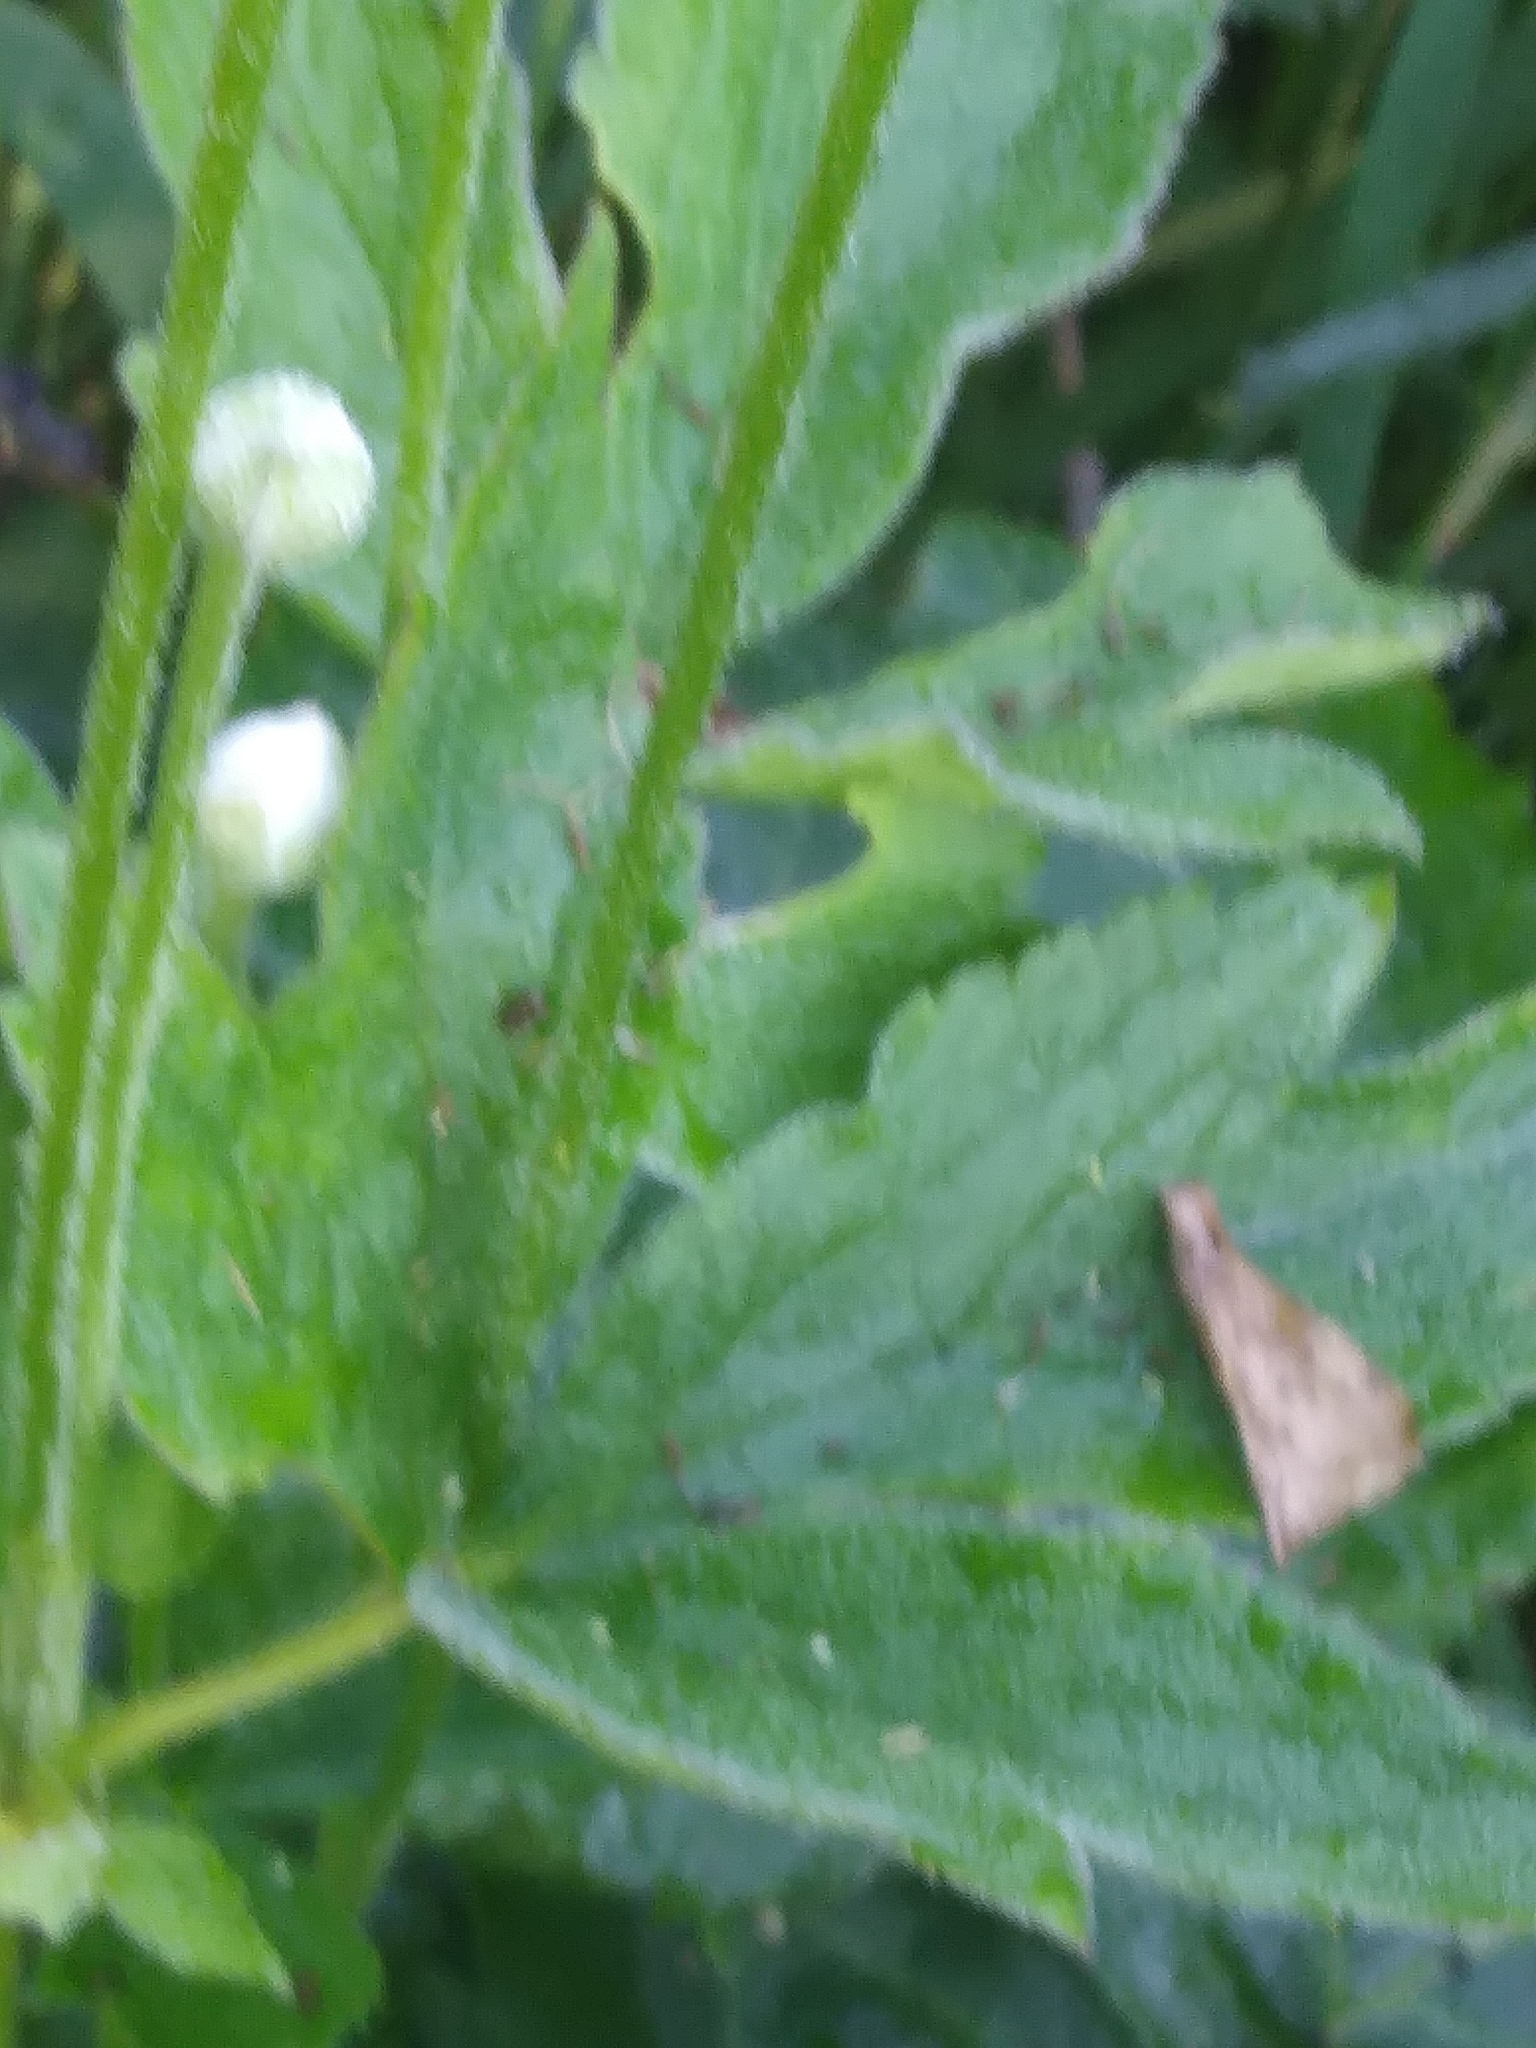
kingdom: Plantae
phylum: Tracheophyta
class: Magnoliopsida
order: Ranunculales
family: Ranunculaceae
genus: Anemone
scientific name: Anemone virginiana
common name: Tall anemone
